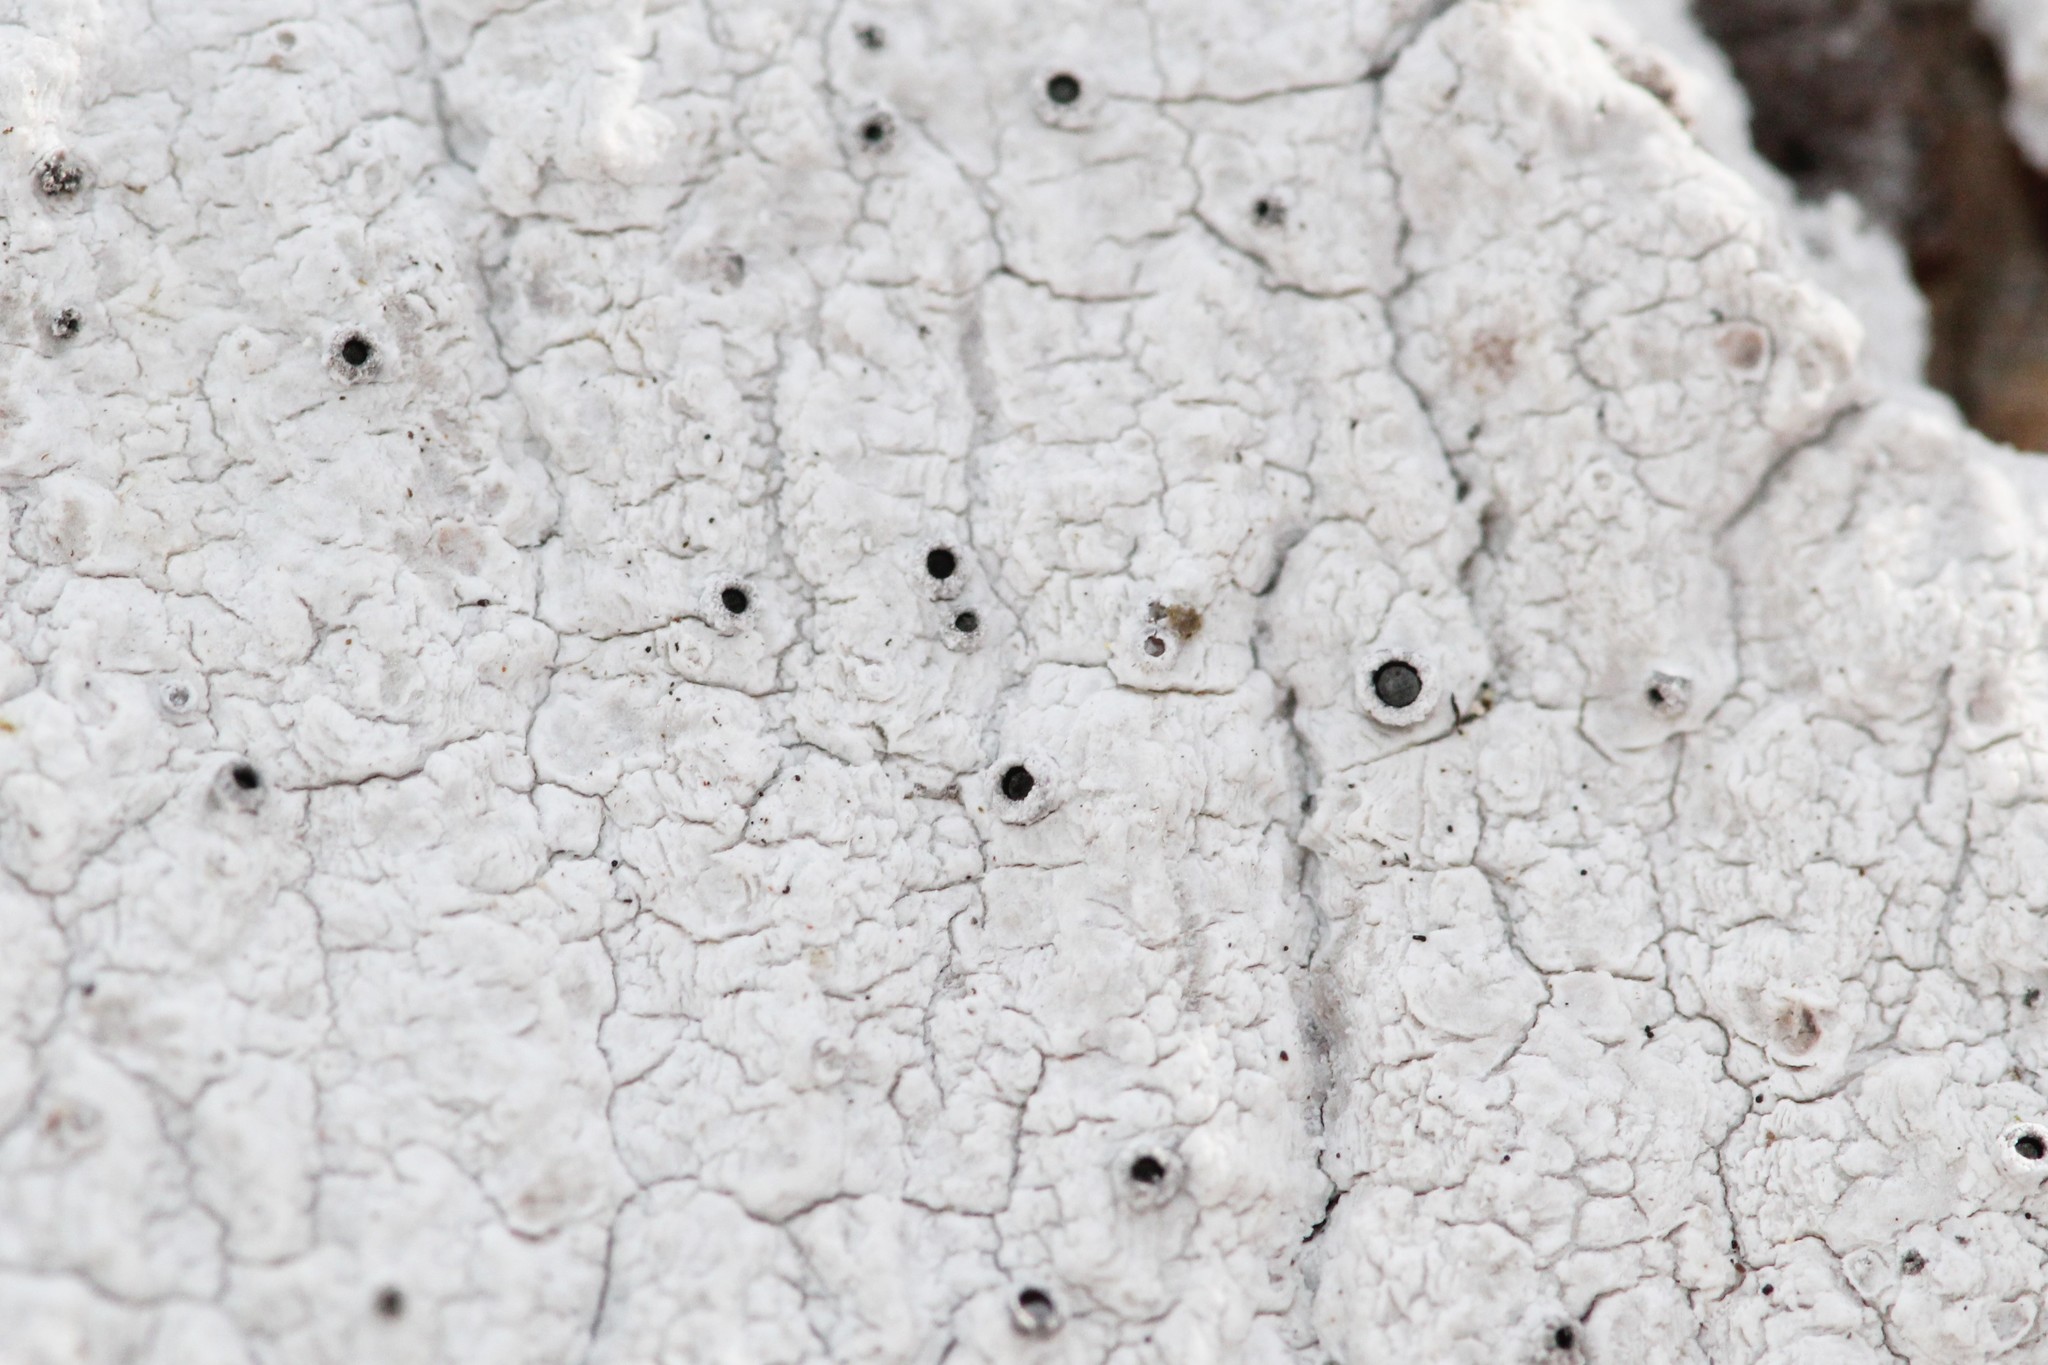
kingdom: Fungi
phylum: Ascomycota
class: Lecanoromycetes
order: Ostropales
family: Stictidaceae
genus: Stictis
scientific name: Stictis urceolata
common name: Can-of-worms lichen
